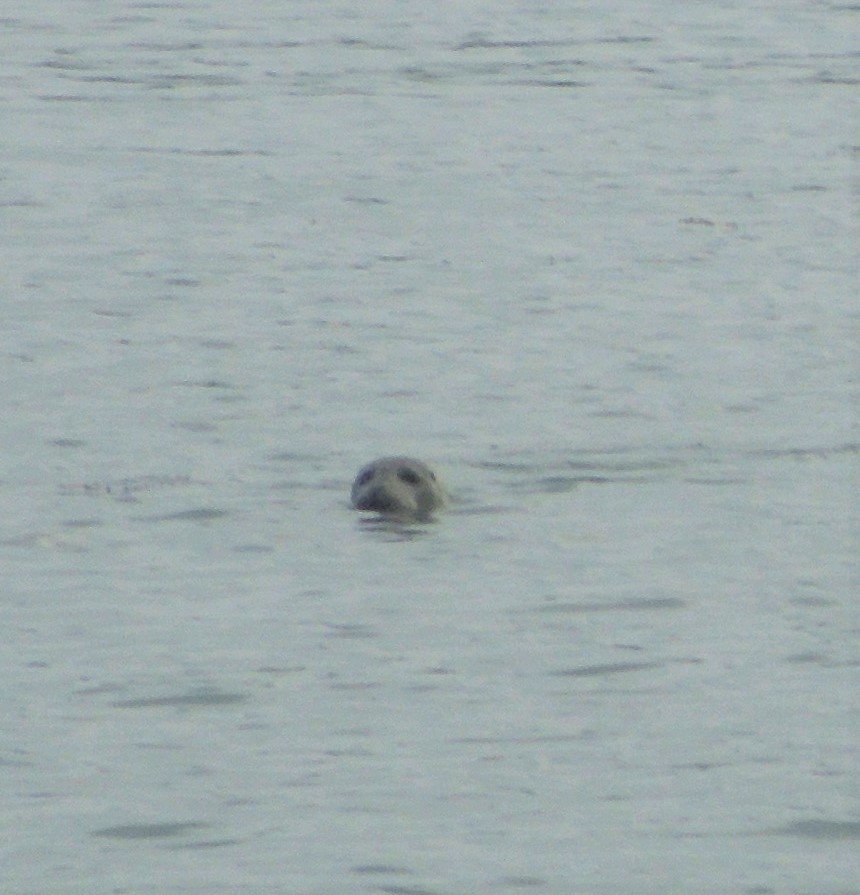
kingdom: Animalia
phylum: Chordata
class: Mammalia
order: Carnivora
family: Phocidae
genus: Phoca
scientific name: Phoca vitulina
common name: Harbor seal
